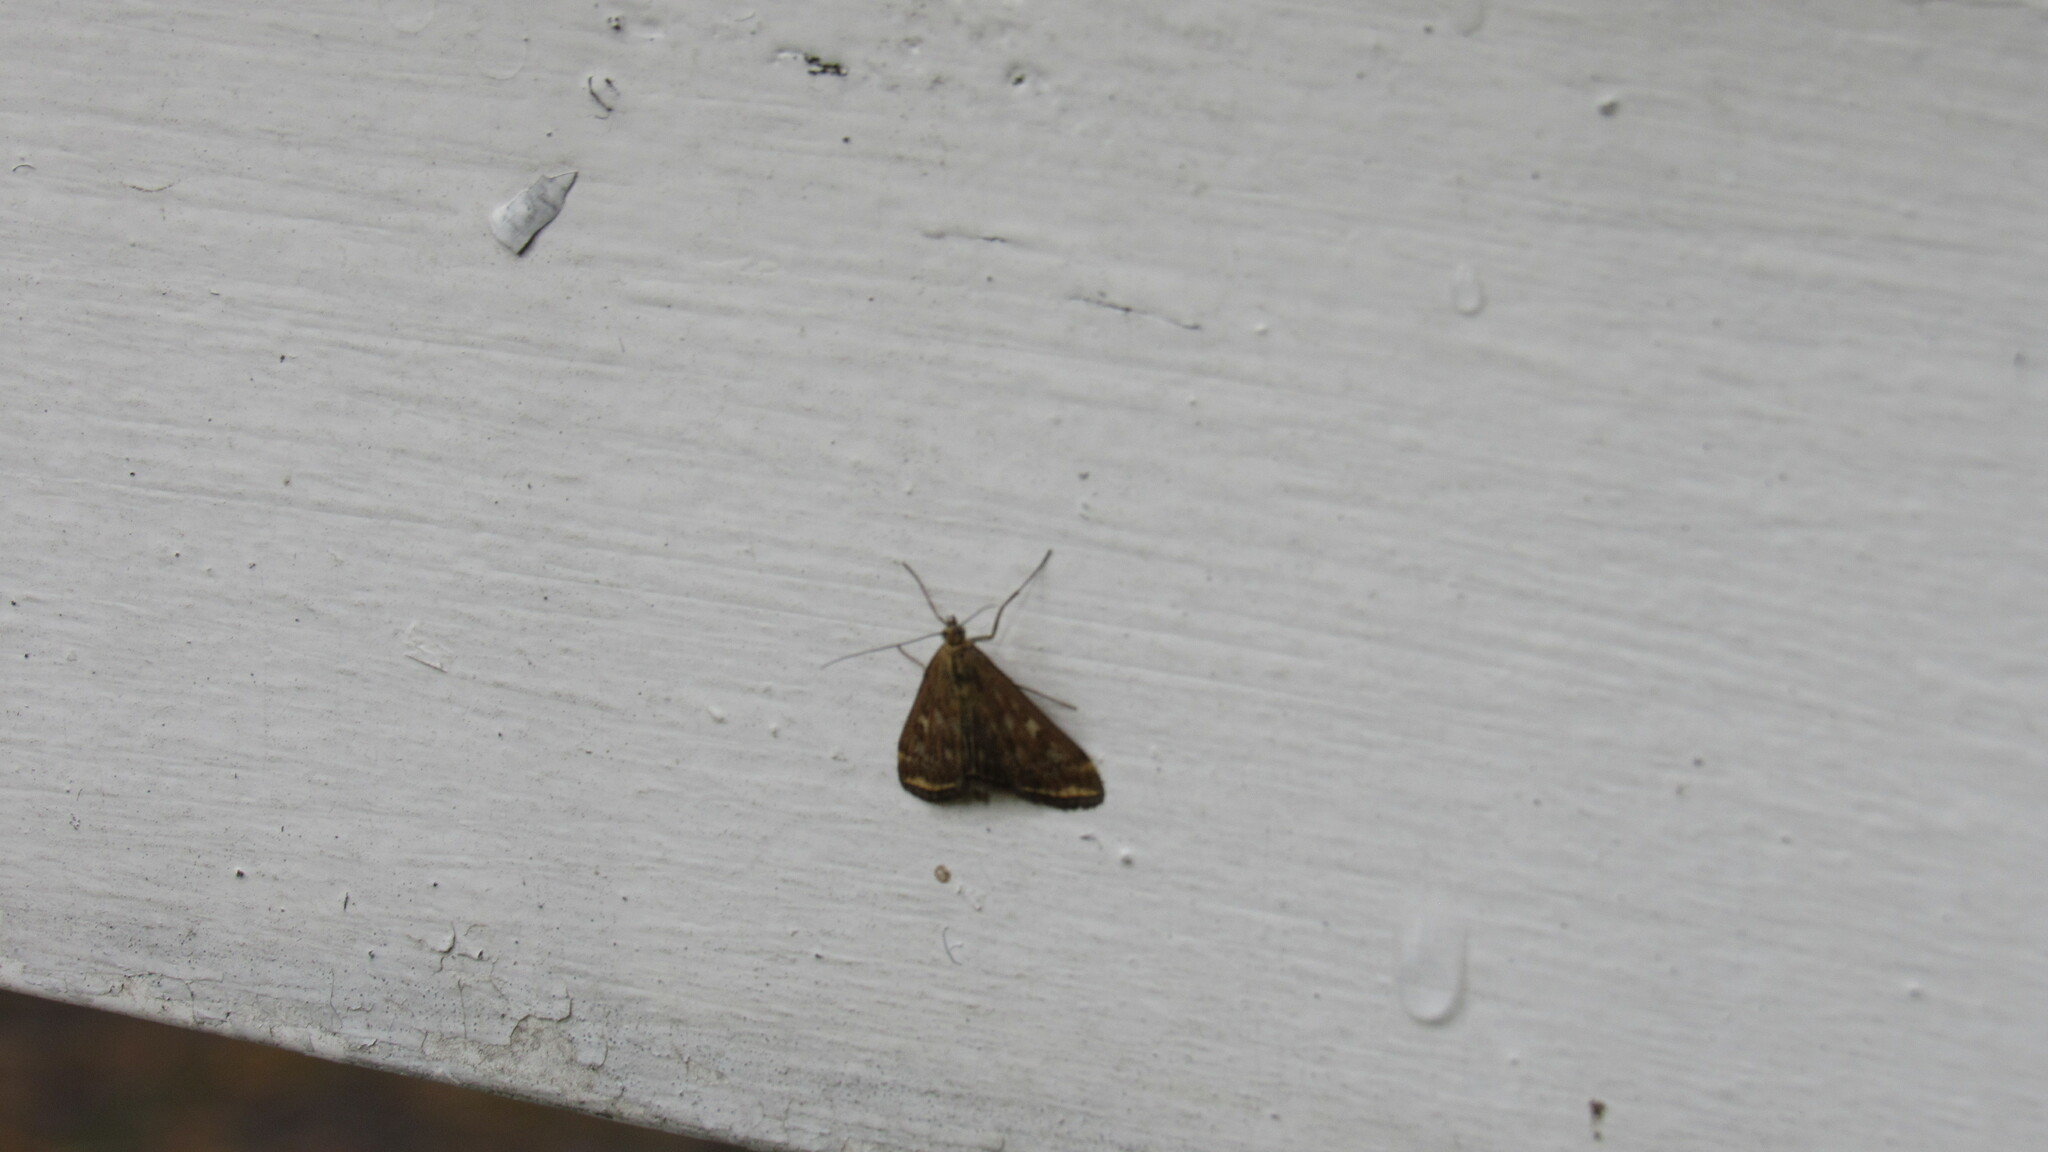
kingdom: Animalia
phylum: Arthropoda
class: Insecta
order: Lepidoptera
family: Crambidae
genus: Loxostege
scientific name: Loxostege sticticalis
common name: Crambid moth
